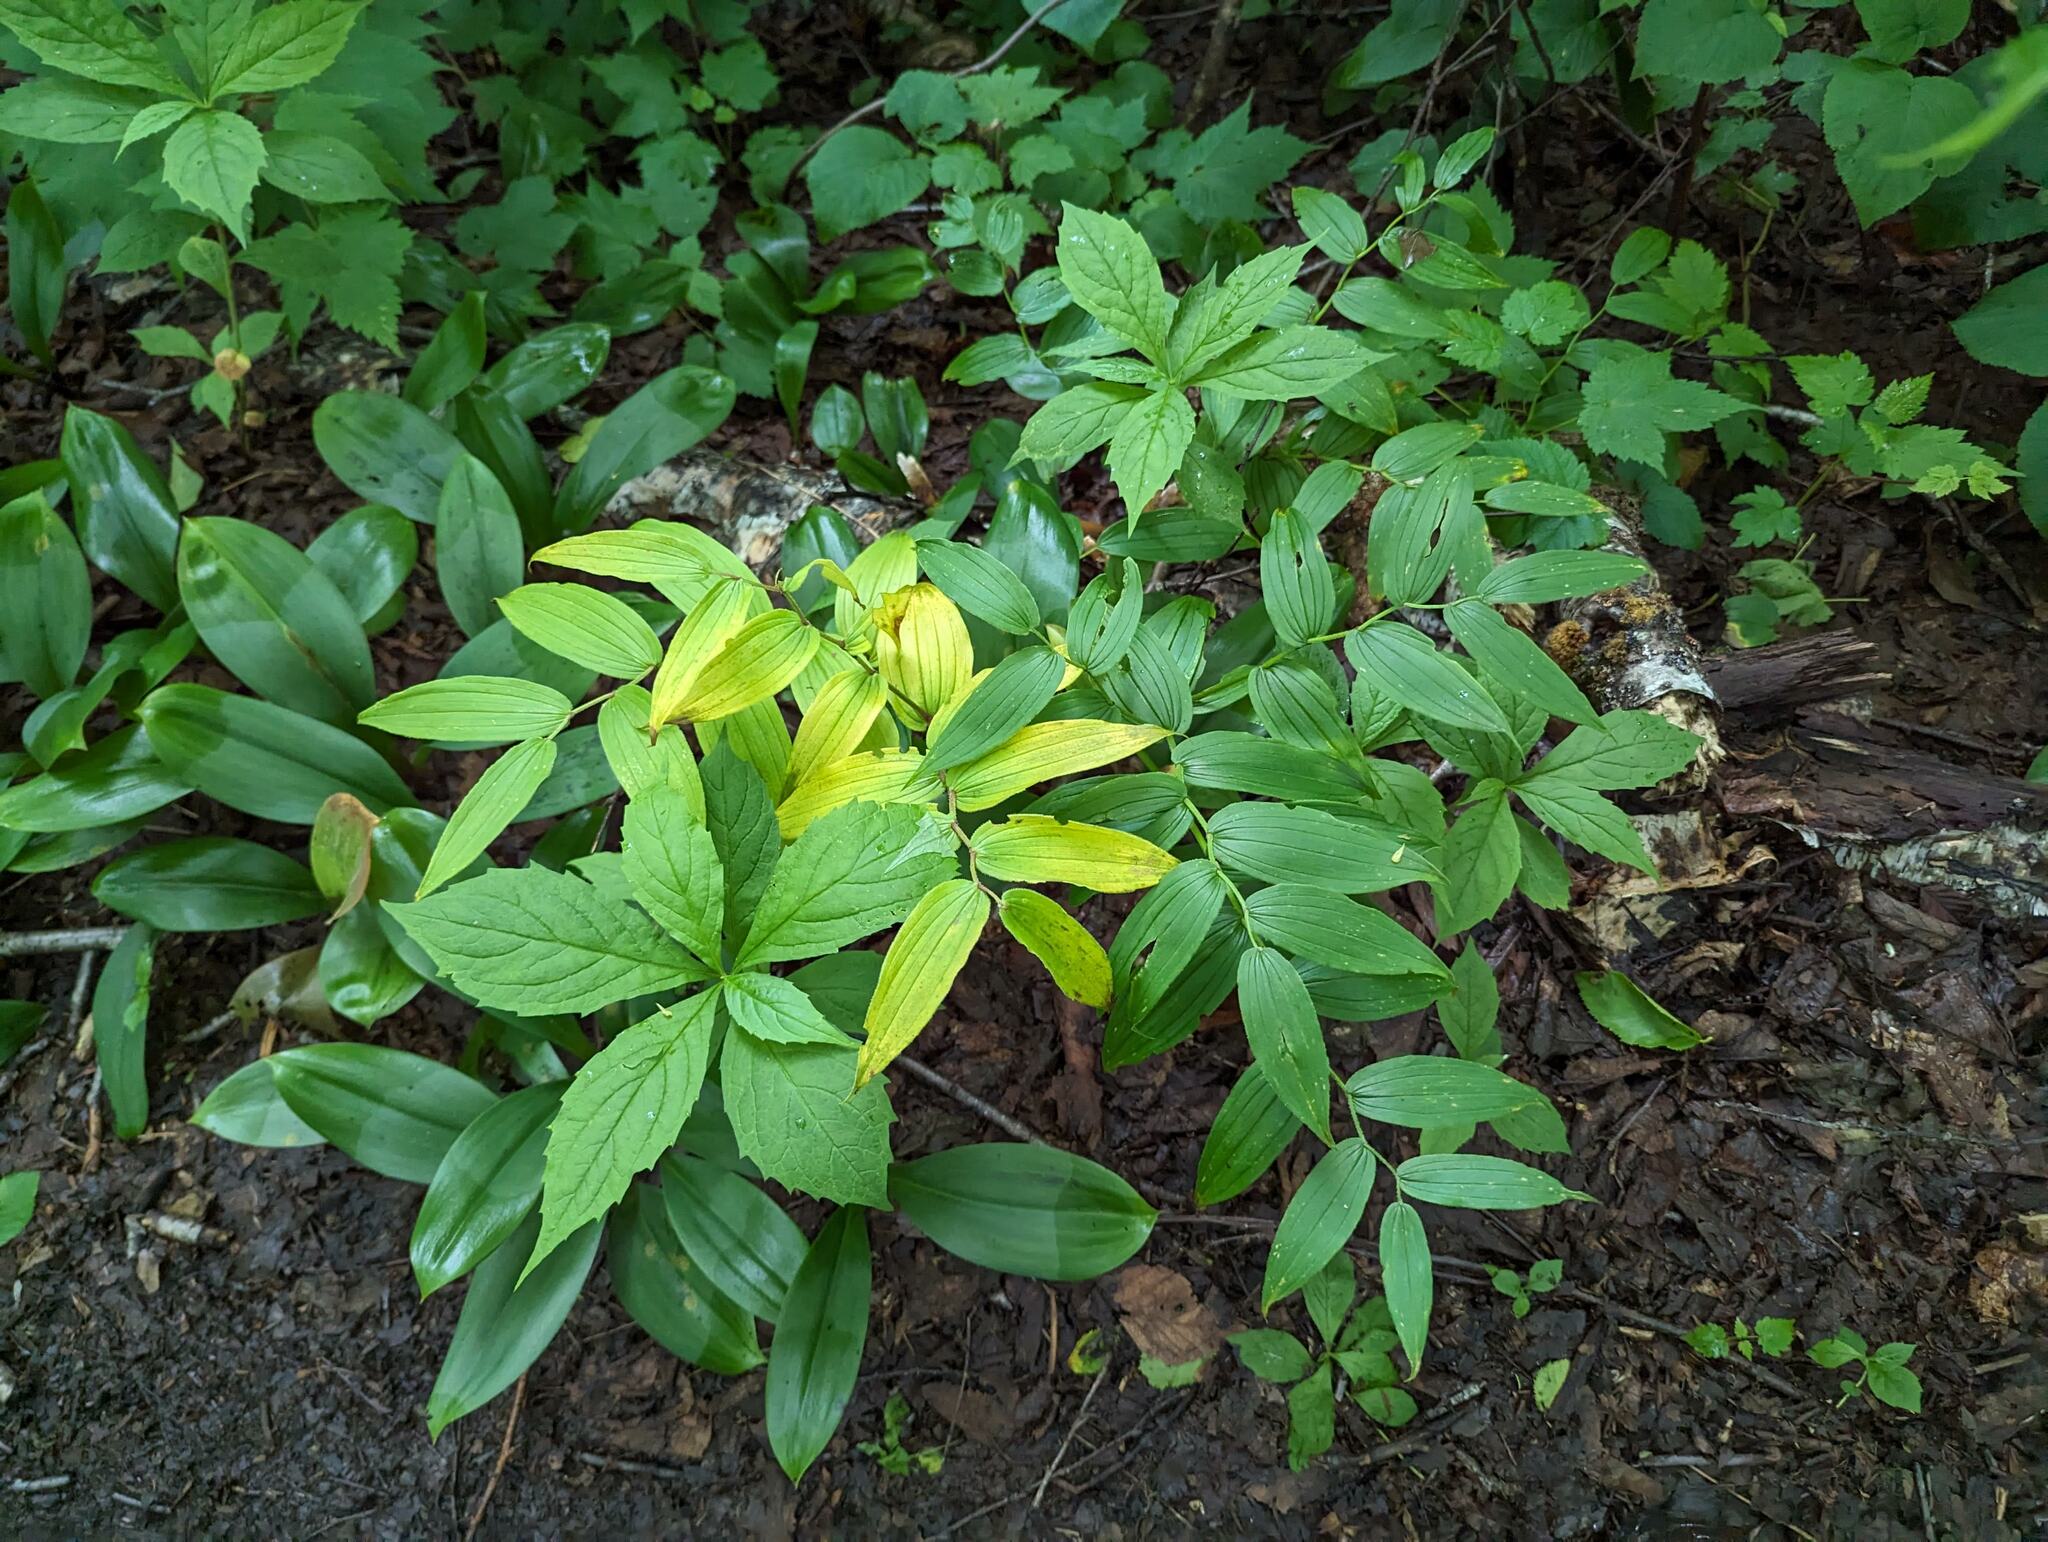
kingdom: Plantae
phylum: Tracheophyta
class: Liliopsida
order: Liliales
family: Liliaceae
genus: Streptopus
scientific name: Streptopus lanceolatus
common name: Rose mandarin
